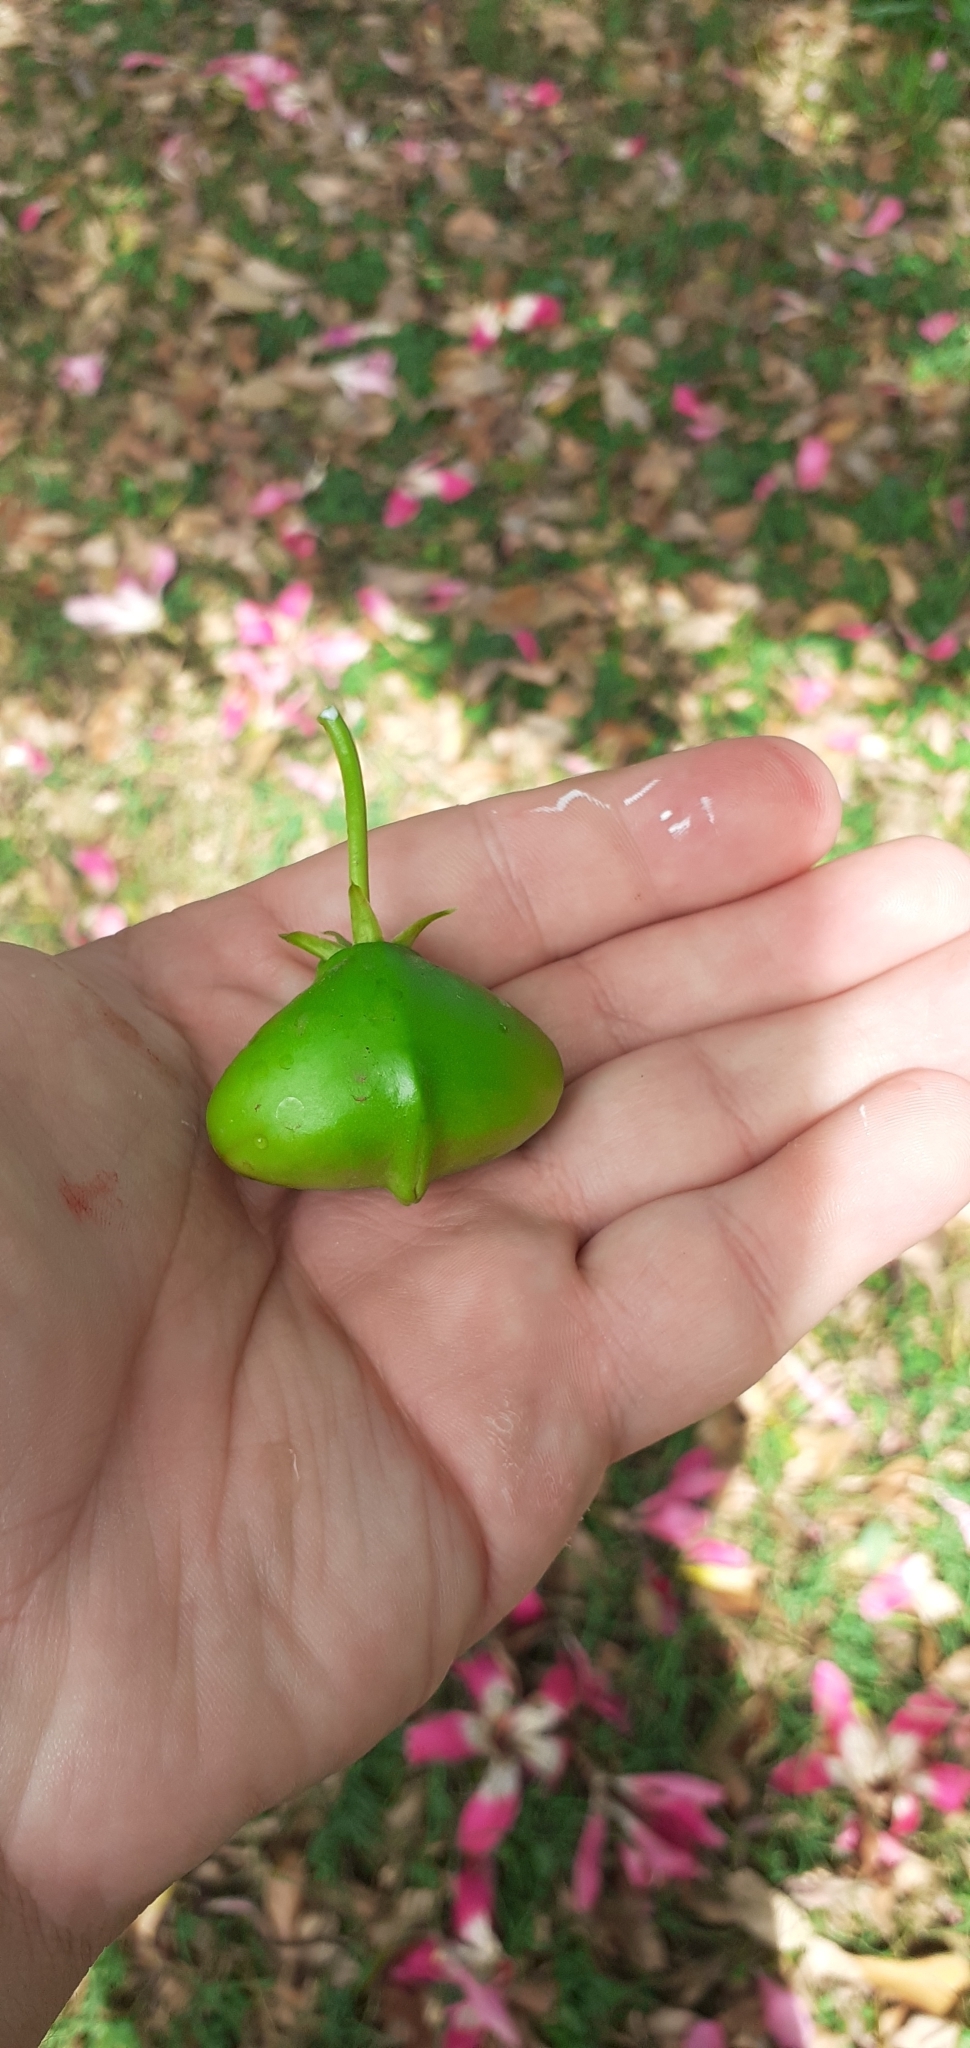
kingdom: Plantae
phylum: Tracheophyta
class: Magnoliopsida
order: Gentianales
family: Apocynaceae
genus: Cascabela
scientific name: Cascabela thevetia
